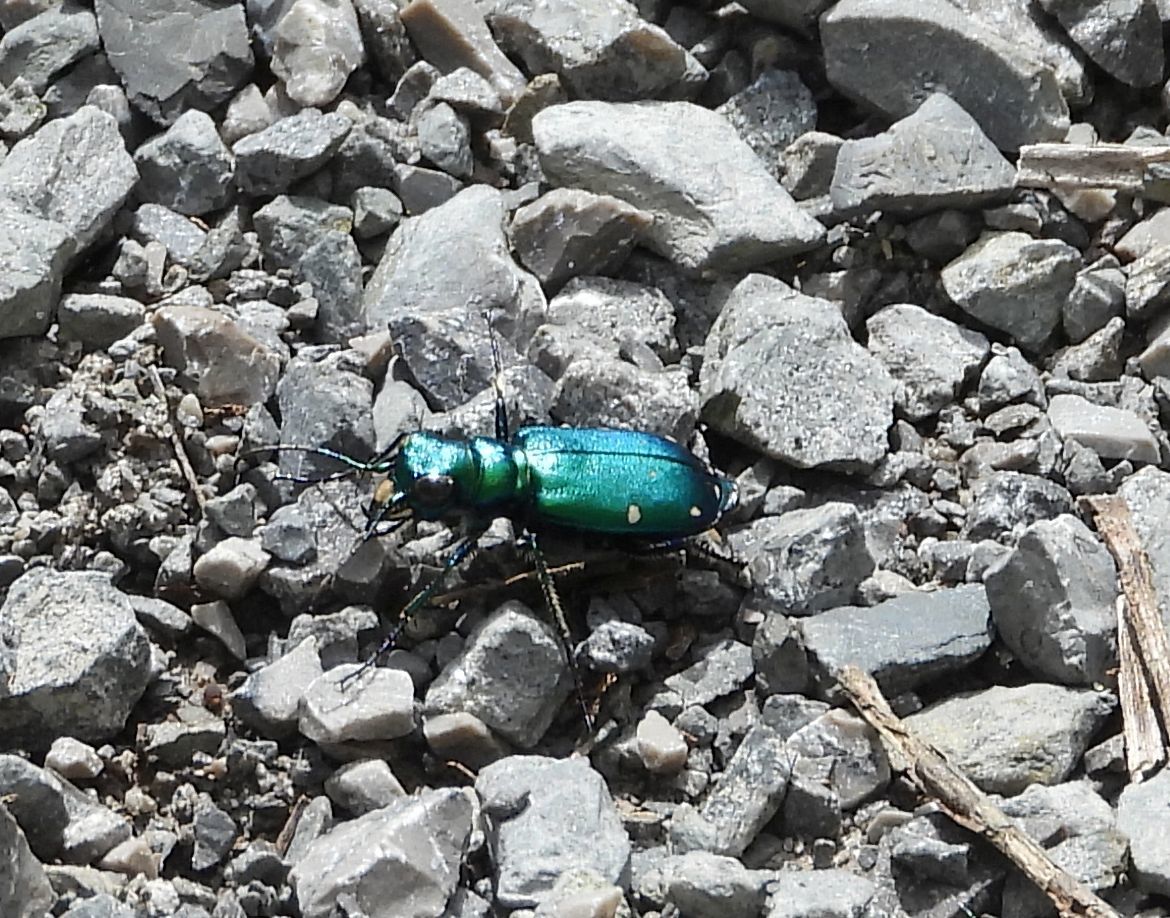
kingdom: Animalia
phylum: Arthropoda
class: Insecta
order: Coleoptera
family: Carabidae
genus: Cicindela
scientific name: Cicindela sexguttata
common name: Six-spotted tiger beetle
